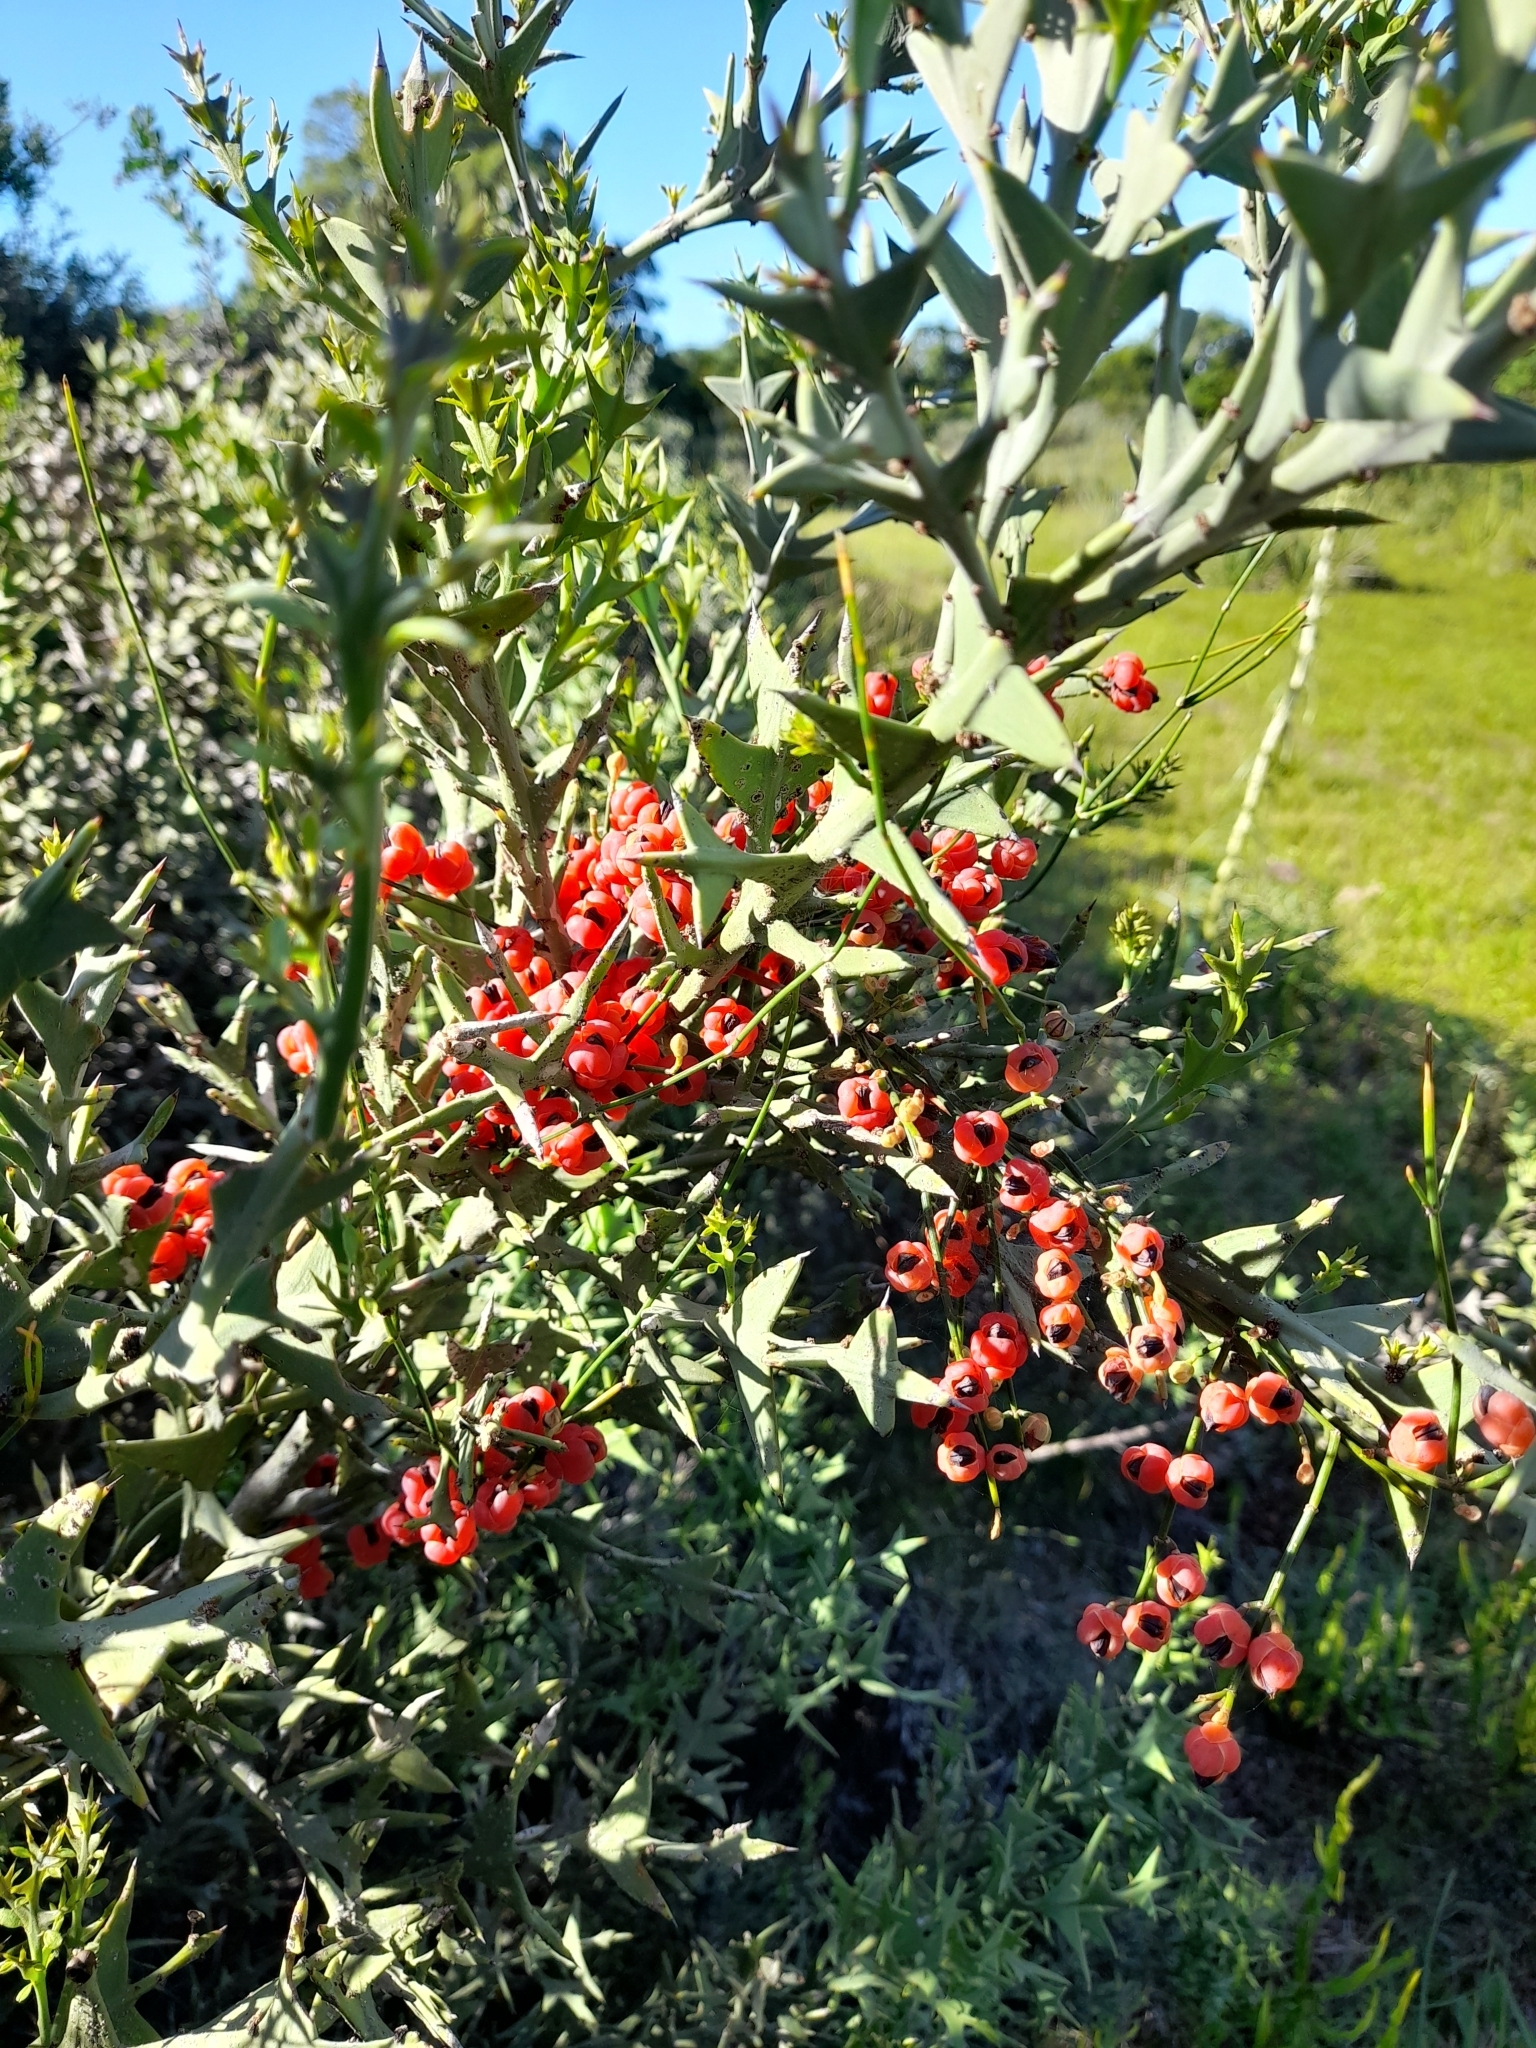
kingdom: Plantae
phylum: Tracheophyta
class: Gnetopsida
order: Ephedrales
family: Ephedraceae
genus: Ephedra
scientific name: Ephedra tweedieana
